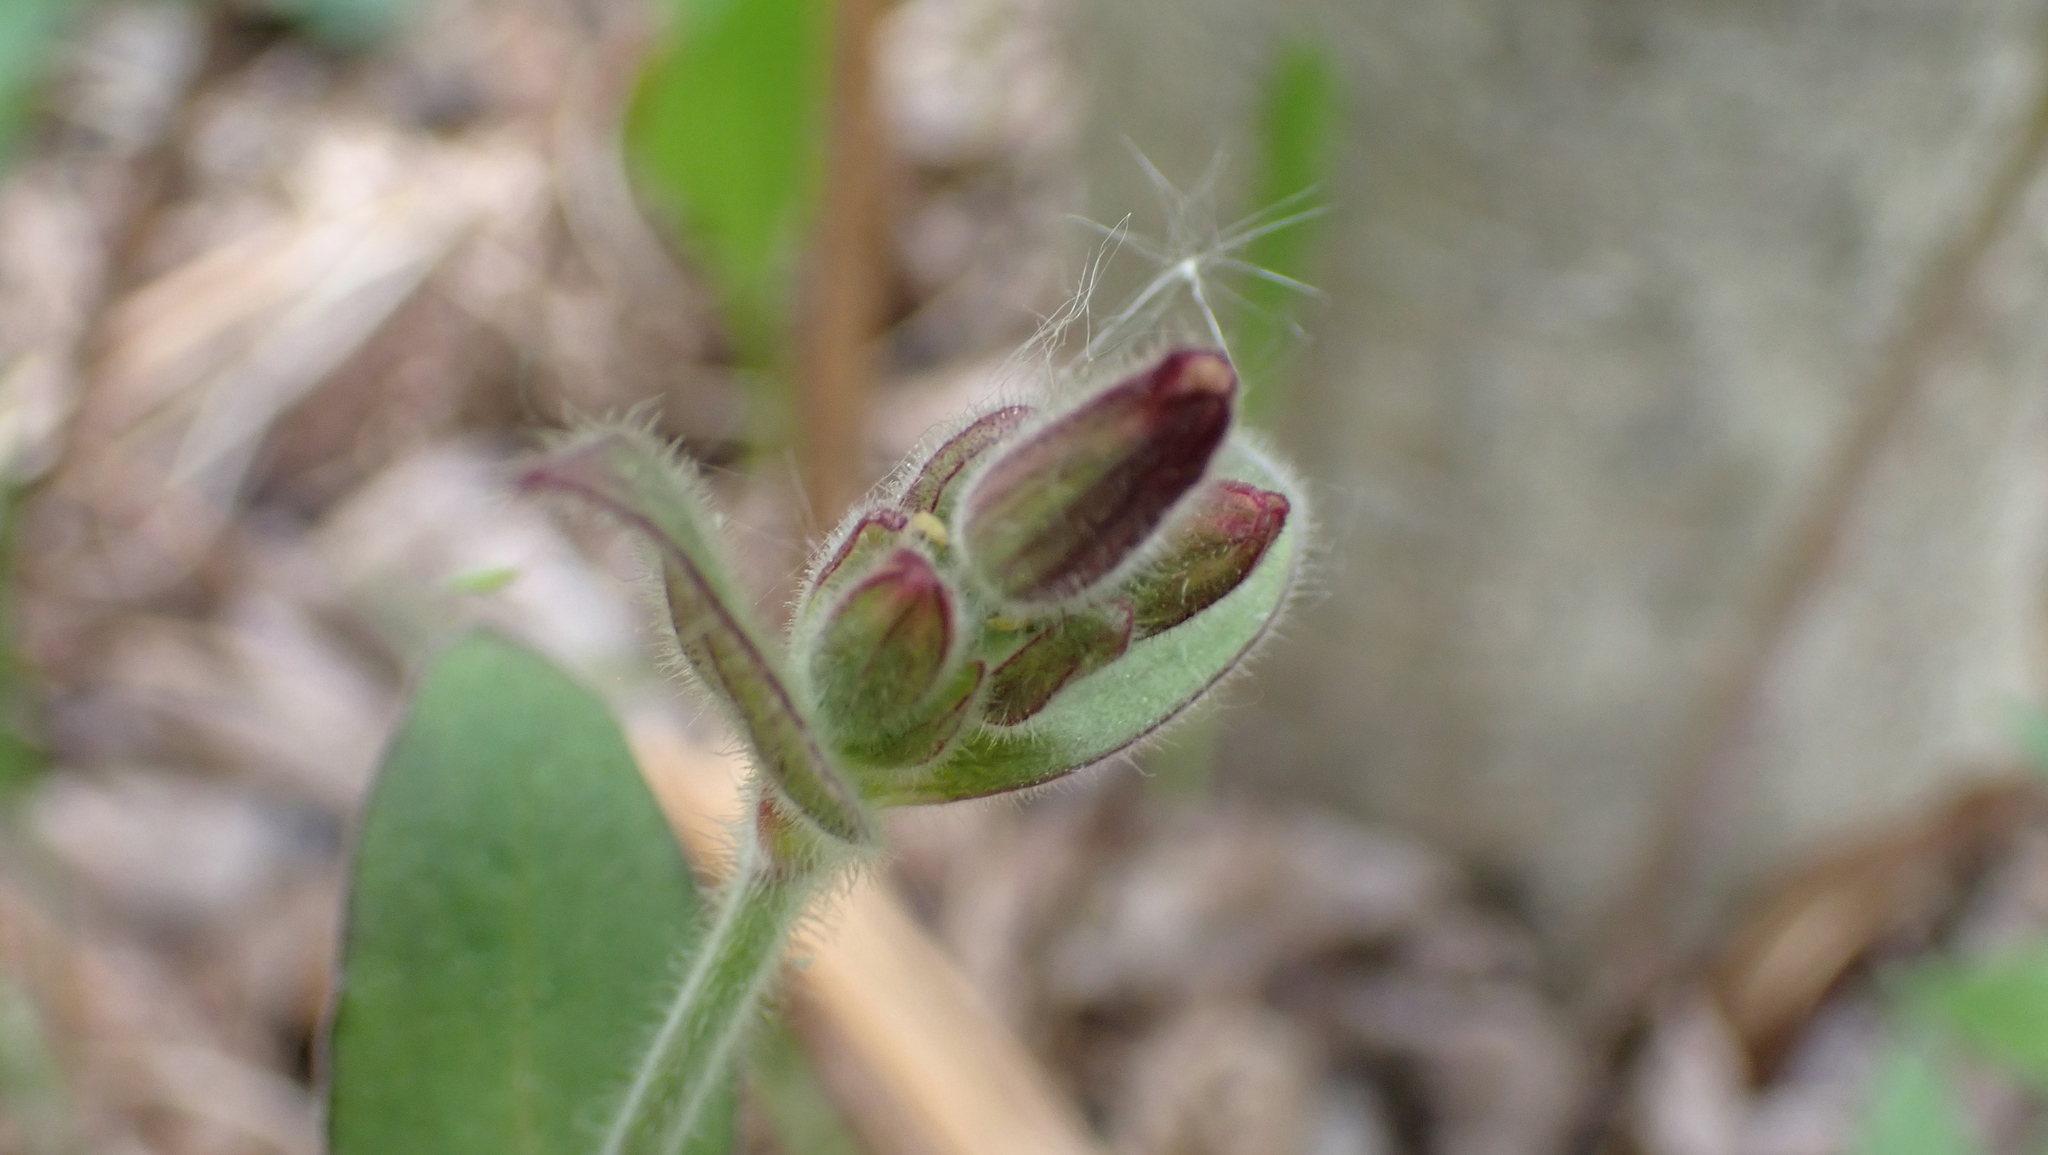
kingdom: Plantae
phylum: Tracheophyta
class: Magnoliopsida
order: Caryophyllales
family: Caryophyllaceae
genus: Silene
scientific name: Silene dioica
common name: Red campion
